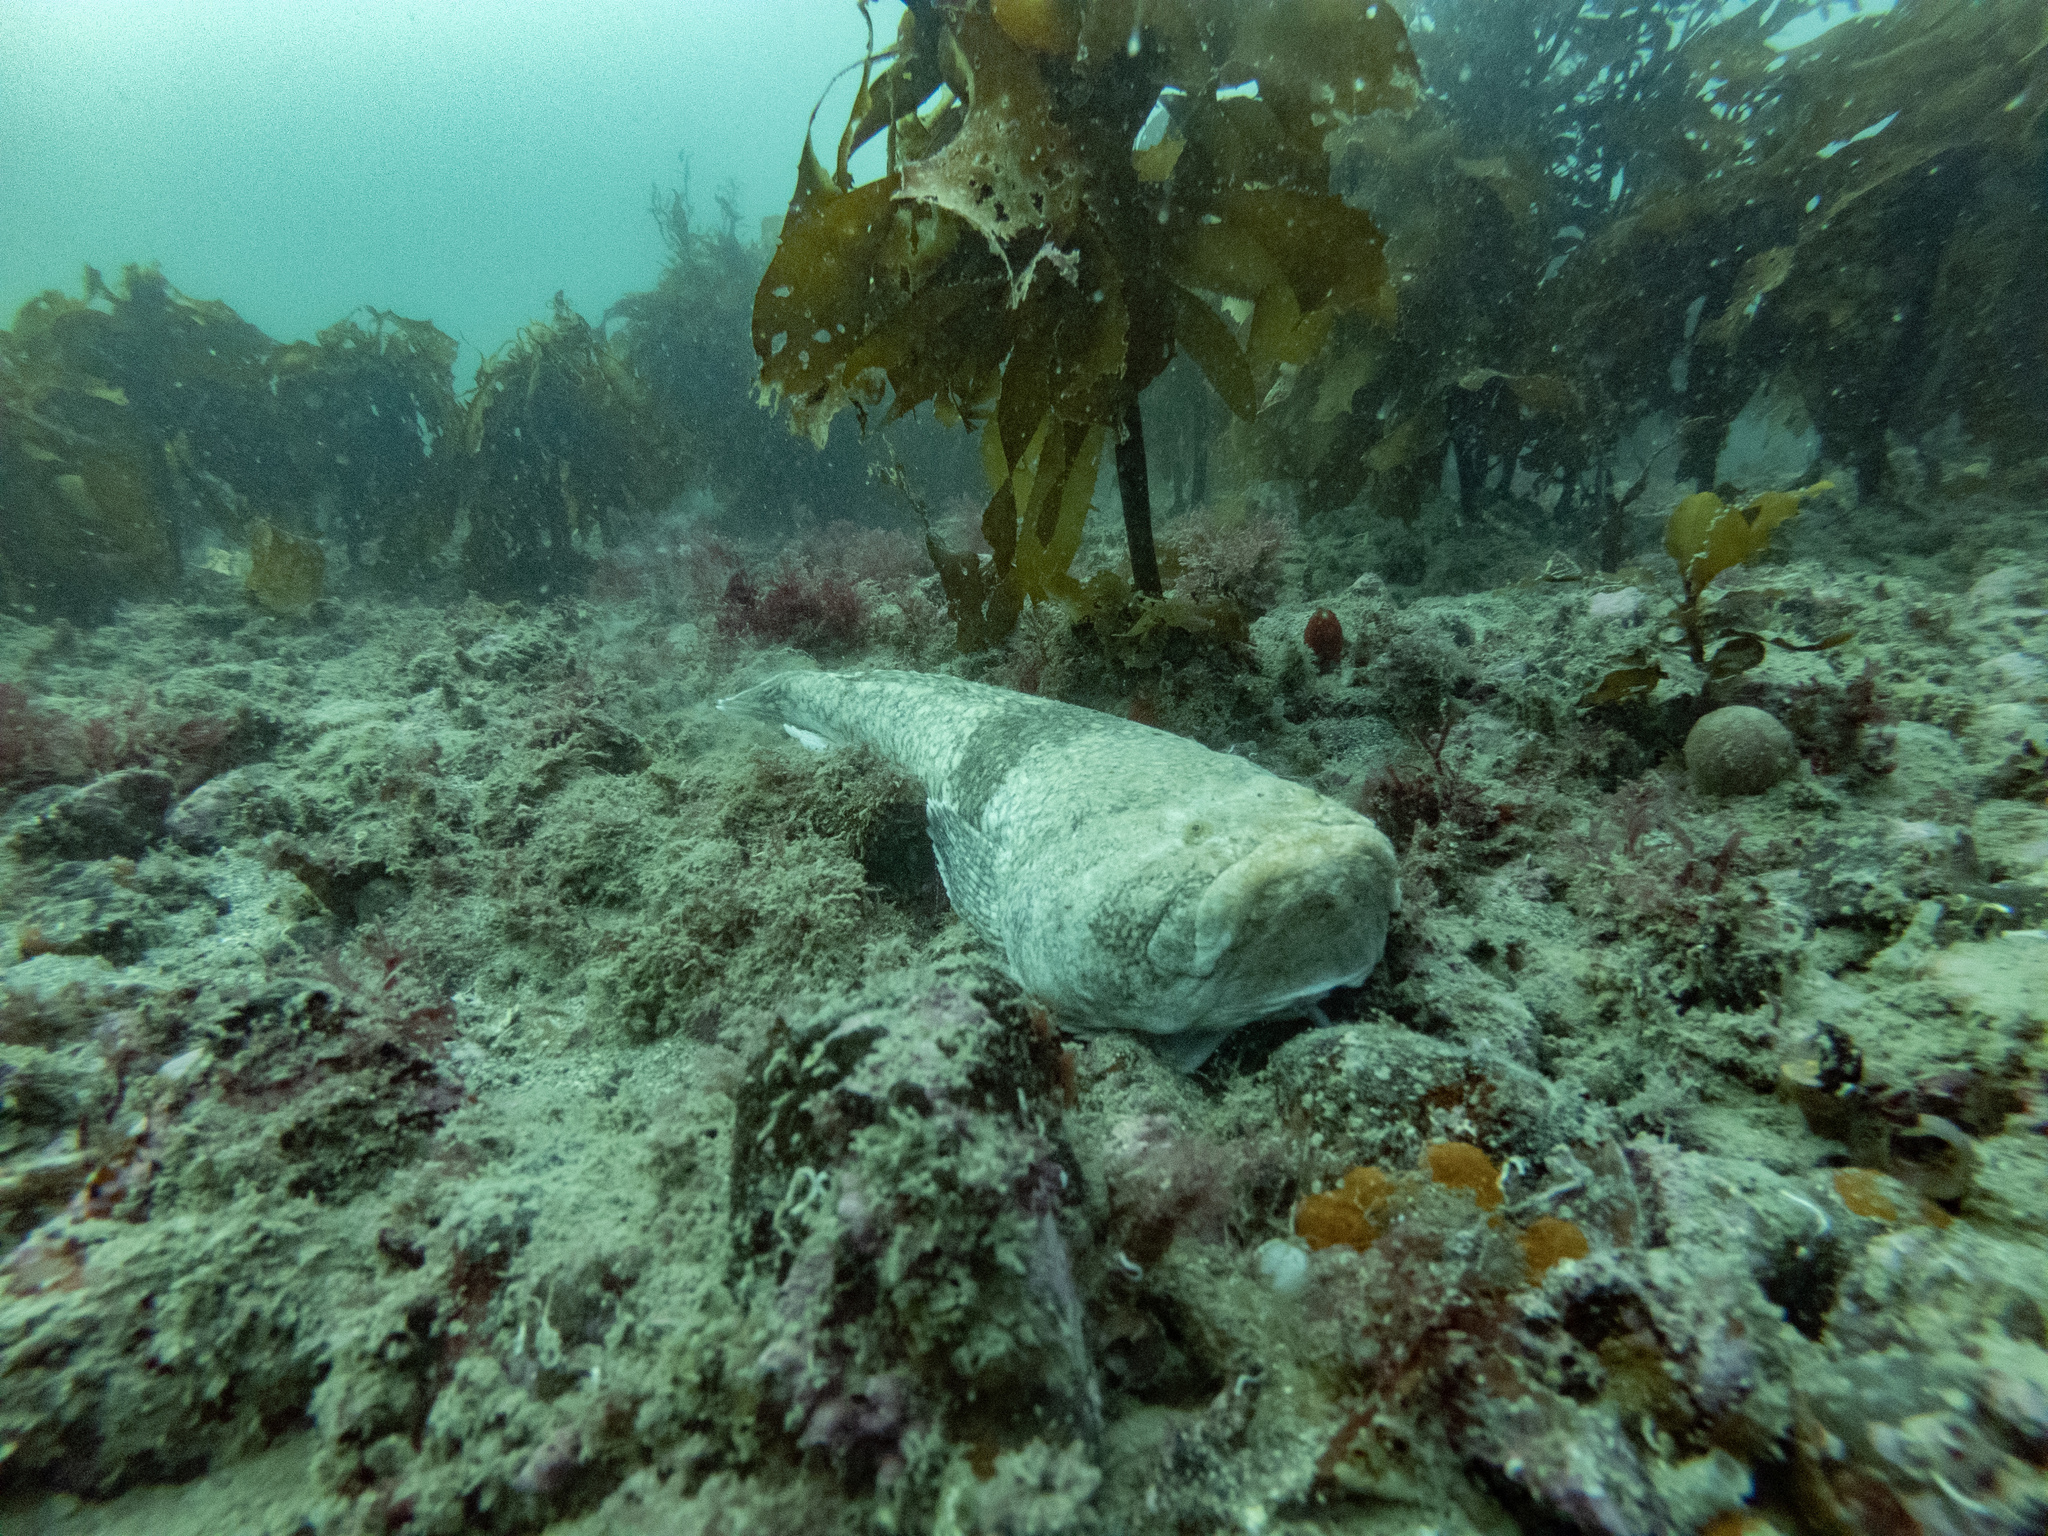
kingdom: Animalia
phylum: Chordata
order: Perciformes
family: Uranoscopidae
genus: Genyagnus
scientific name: Genyagnus monopterygius
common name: Spotted stargazer
